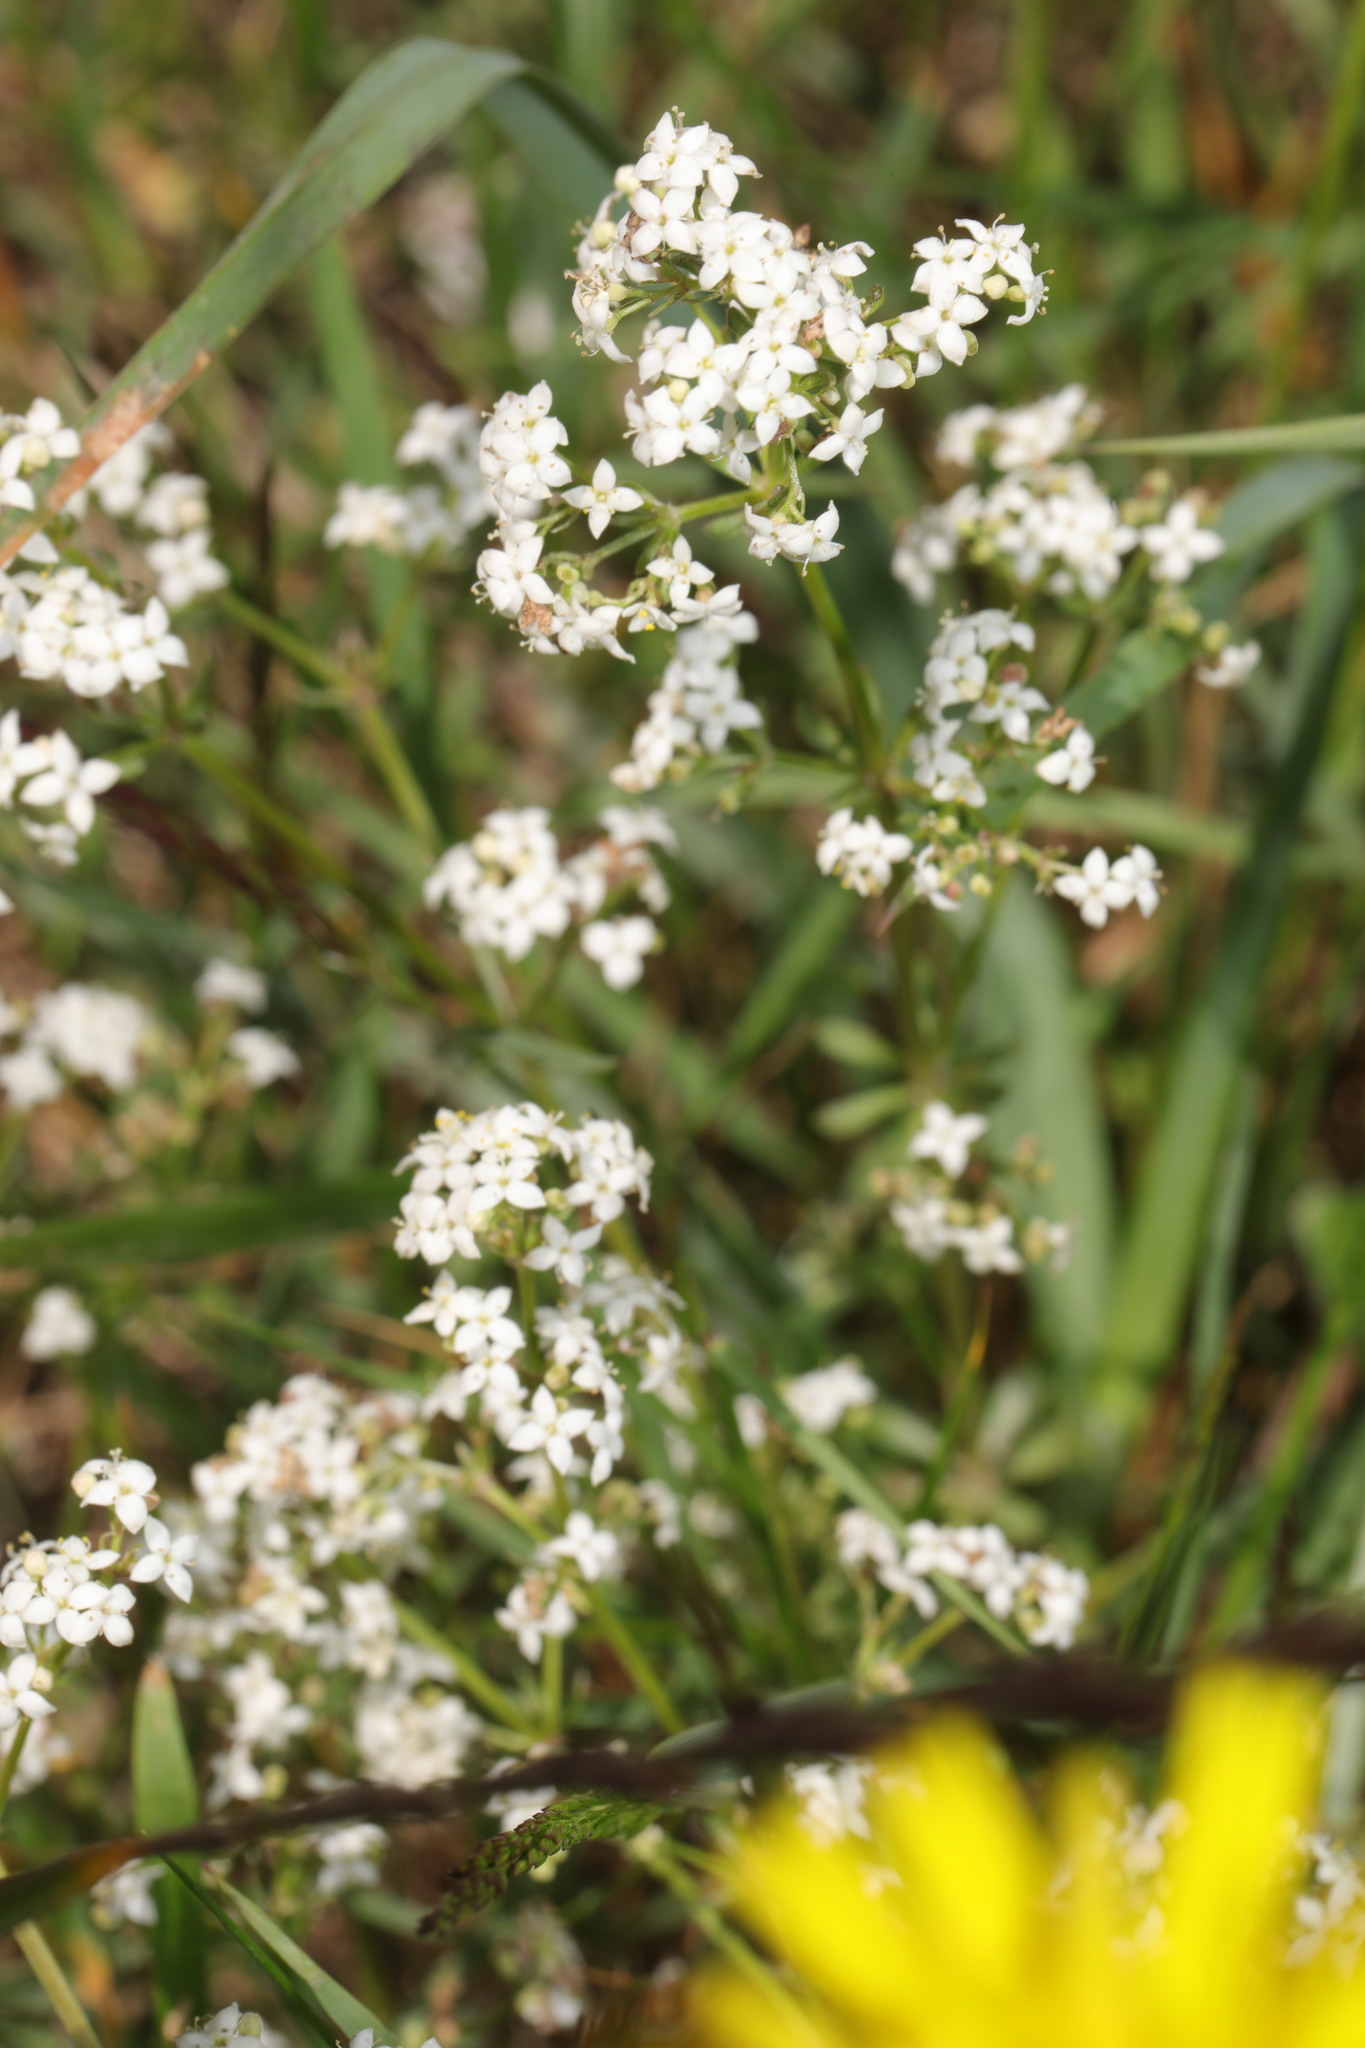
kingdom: Plantae
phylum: Tracheophyta
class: Magnoliopsida
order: Gentianales
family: Rubiaceae
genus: Galium
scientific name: Galium saxatile
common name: Heath bedstraw
